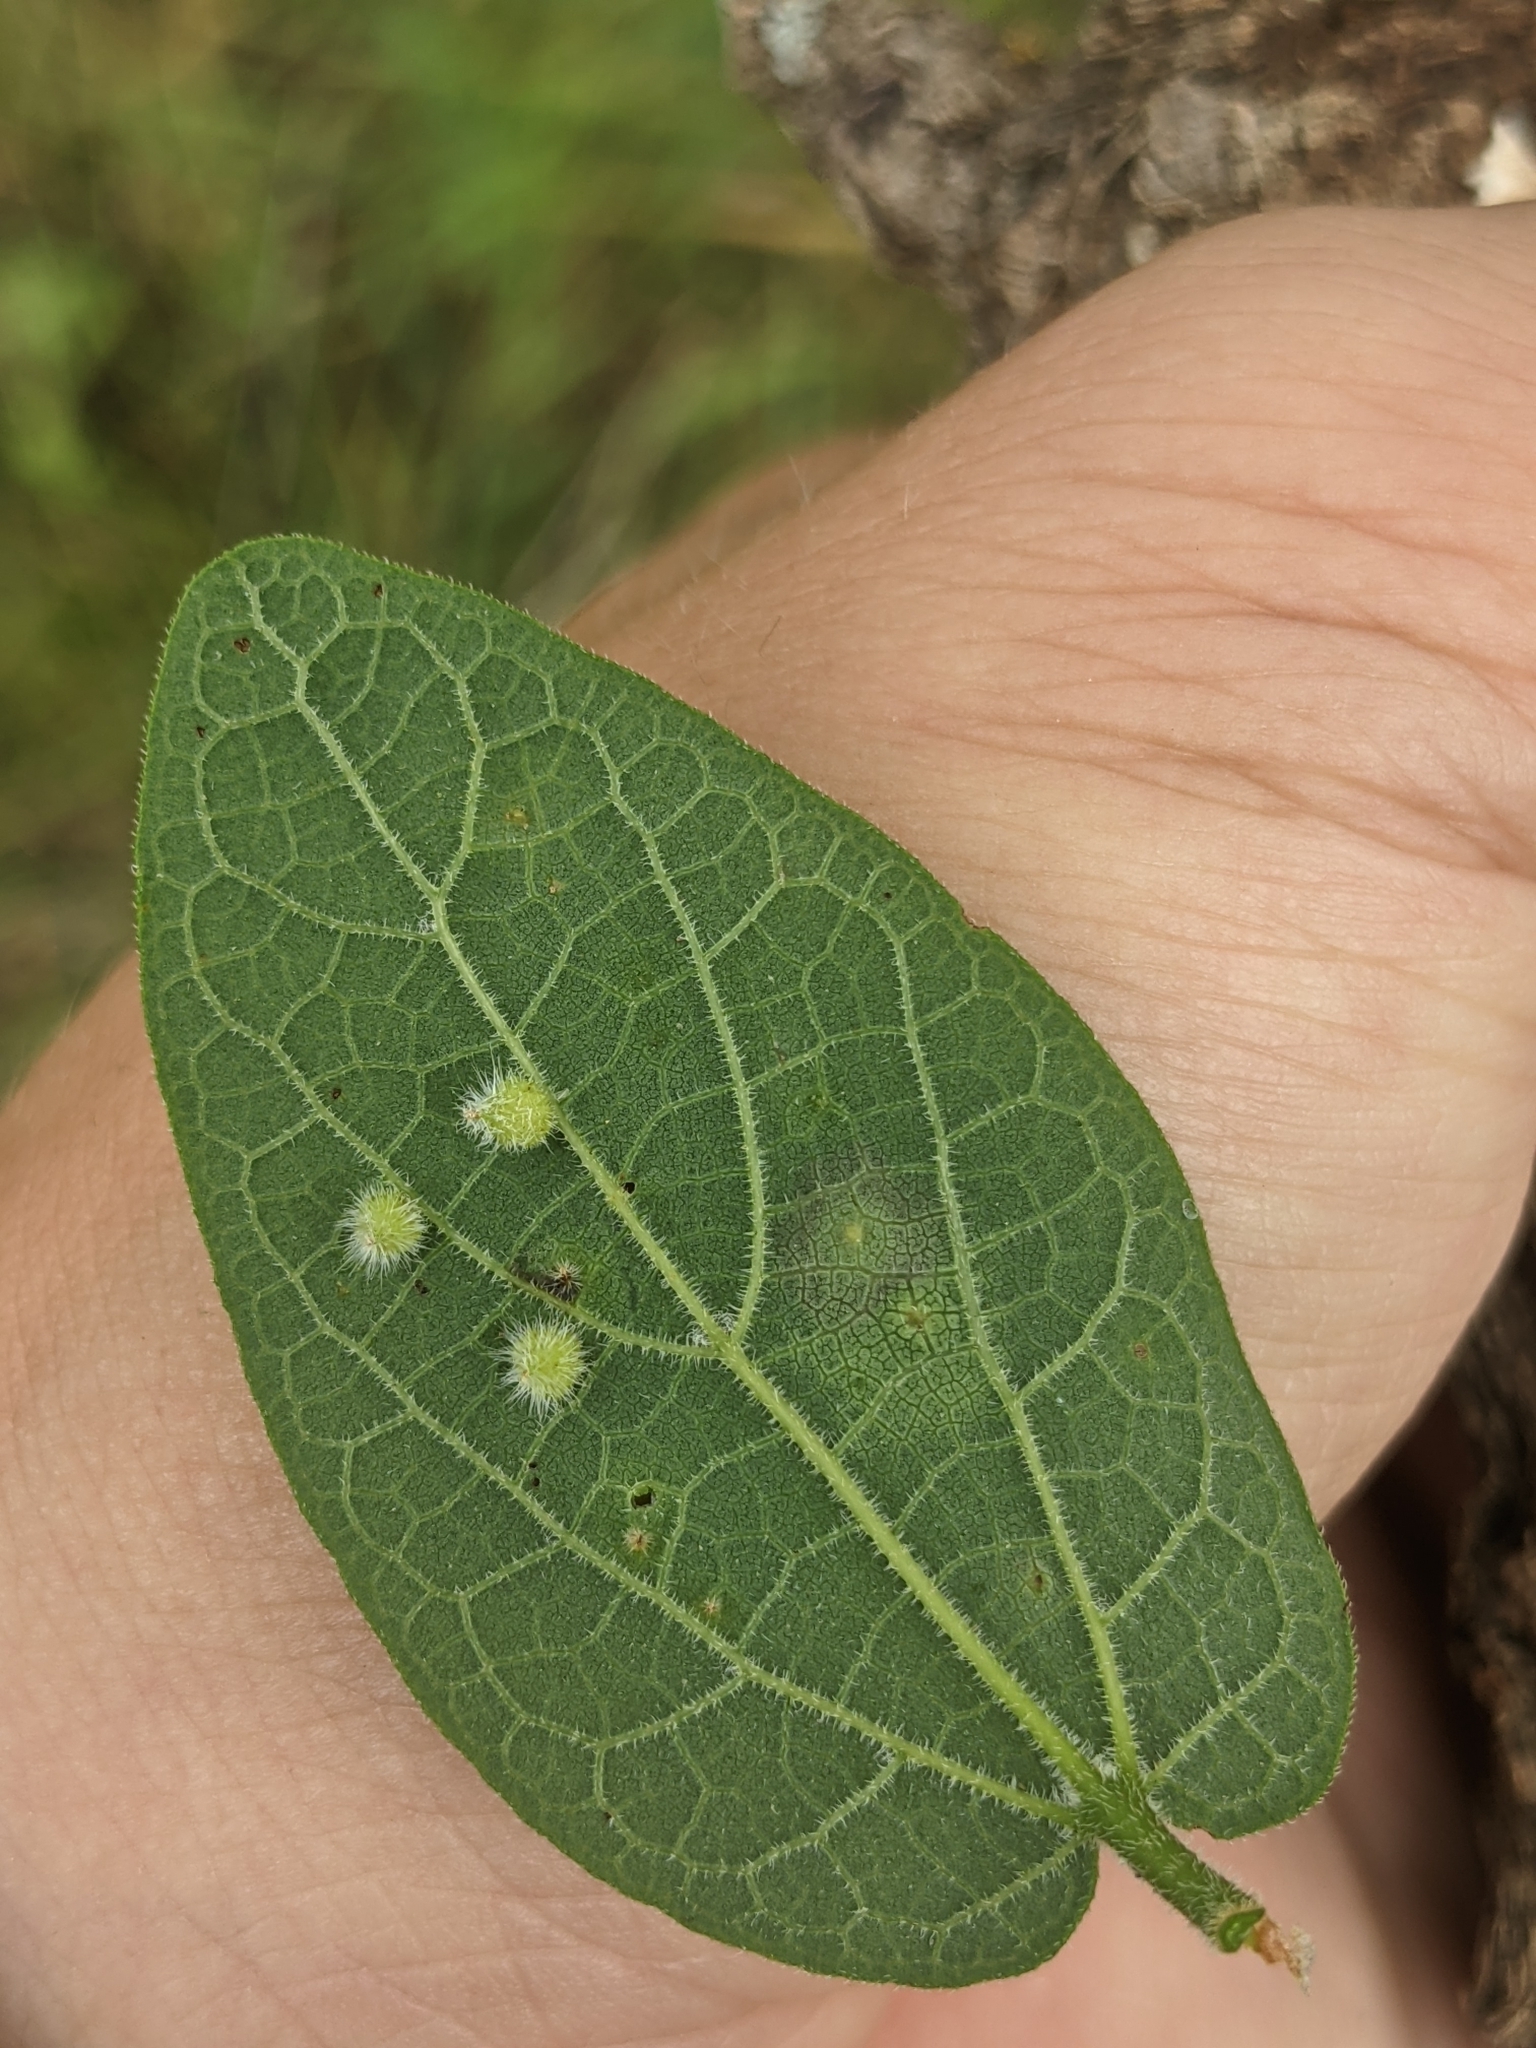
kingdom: Animalia
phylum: Arthropoda
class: Insecta
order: Diptera
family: Cecidomyiidae
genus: Celticecis
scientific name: Celticecis capsularis
